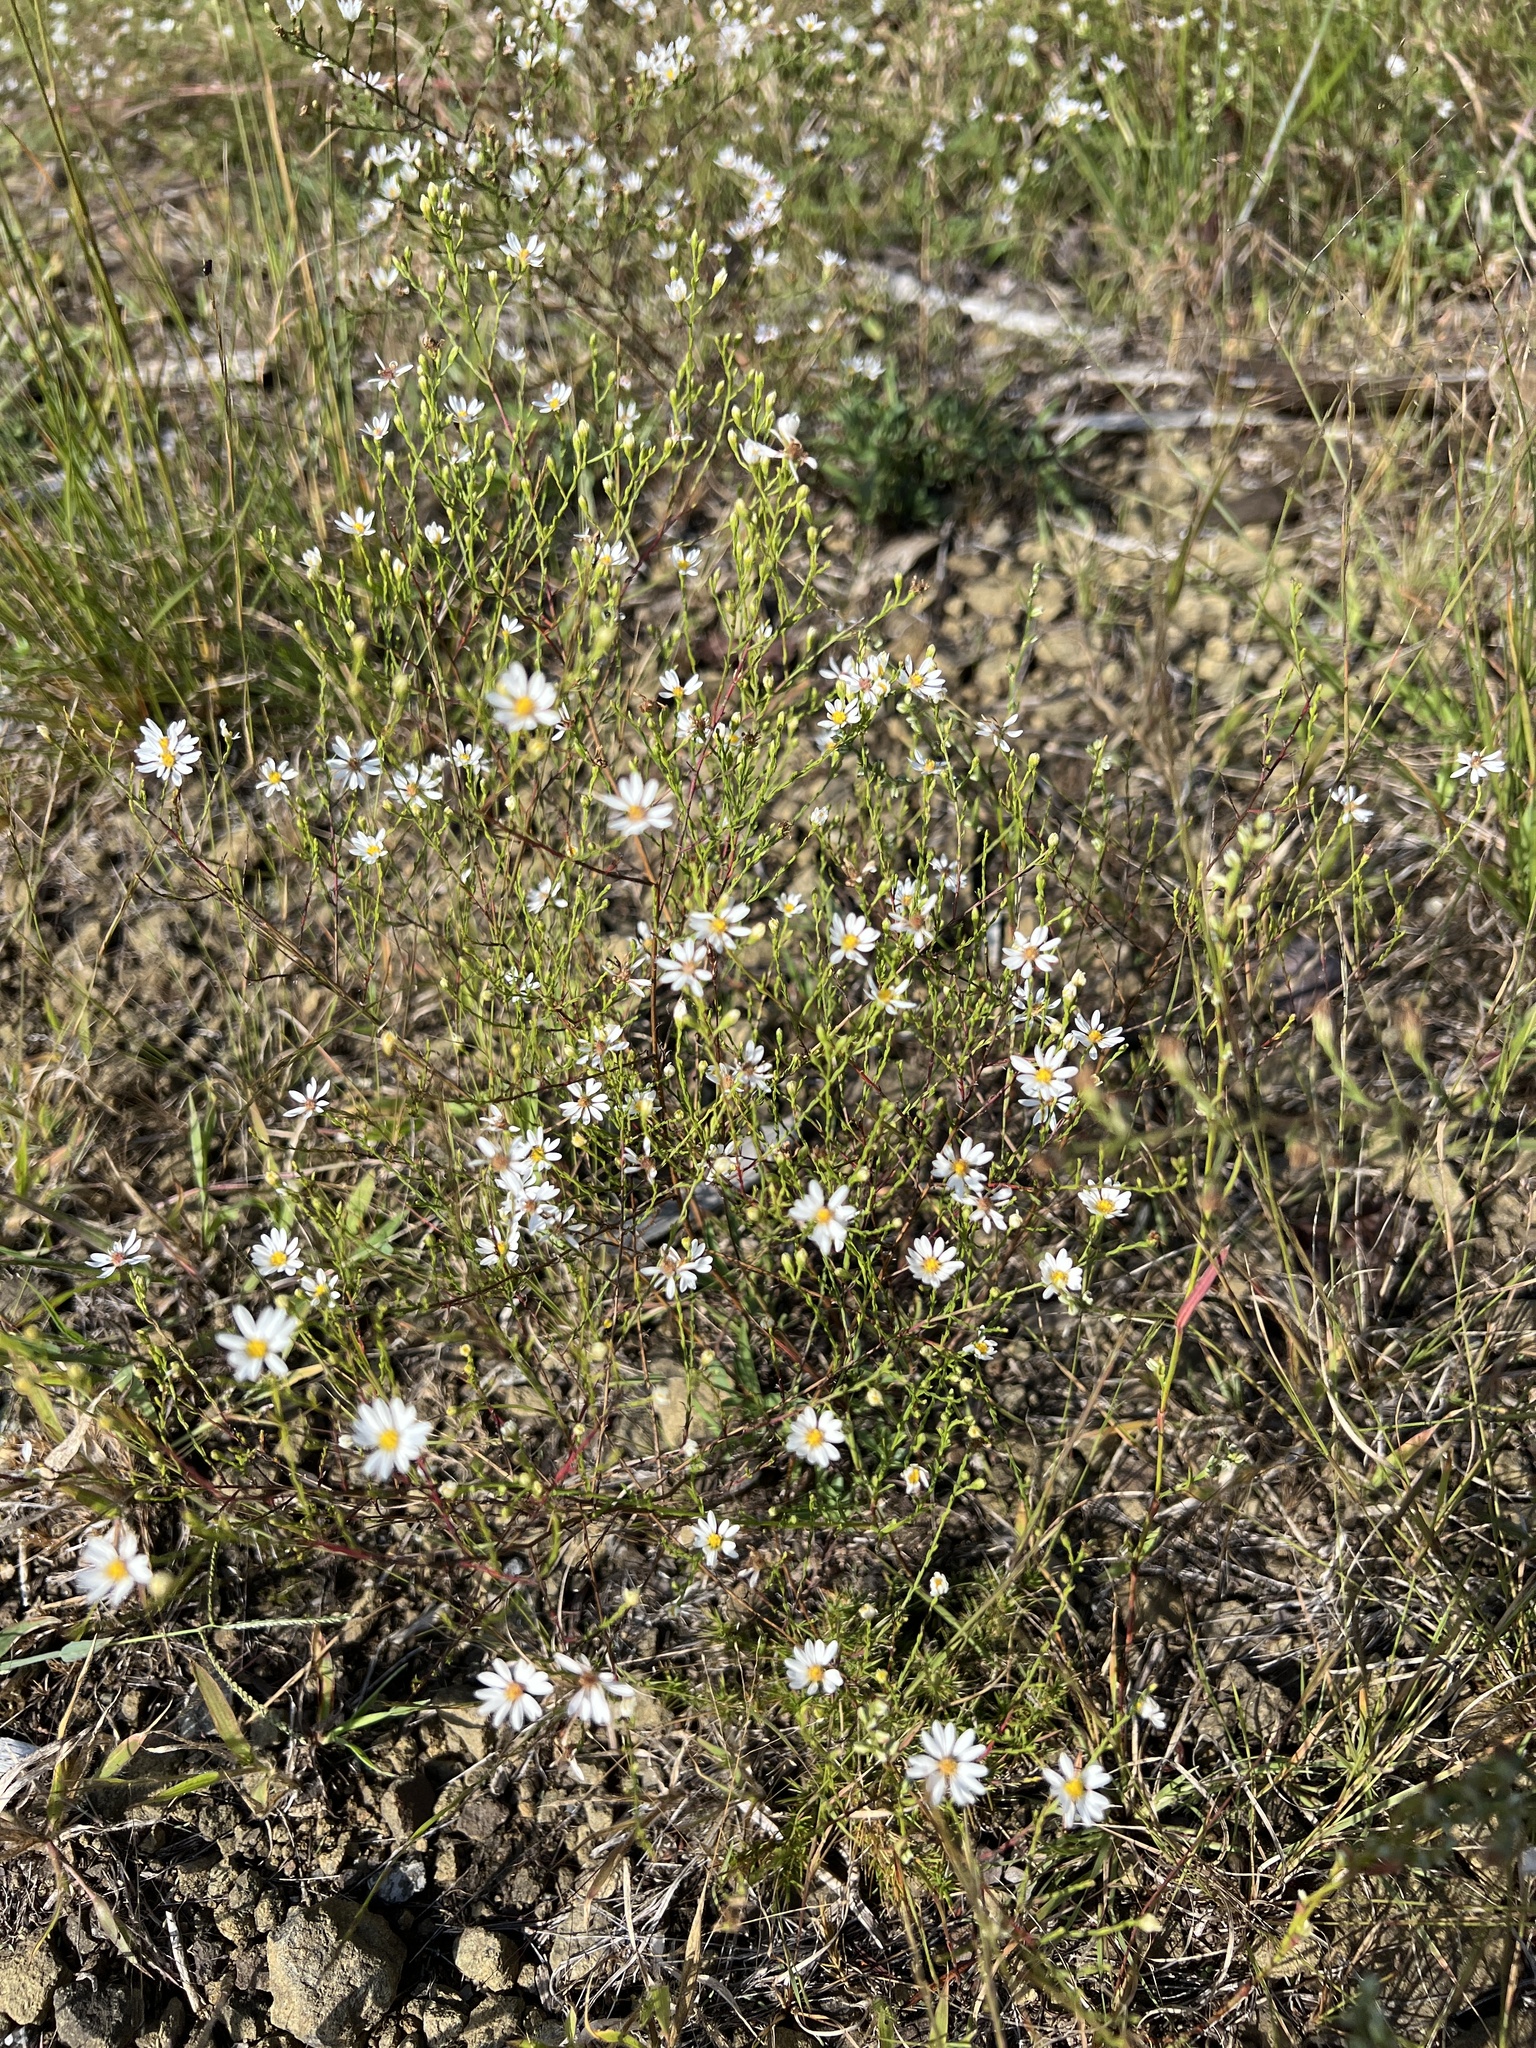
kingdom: Plantae
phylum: Tracheophyta
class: Magnoliopsida
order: Asterales
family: Asteraceae
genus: Symphyotrichum
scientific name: Symphyotrichum depauperatum
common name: Serpentine aster
